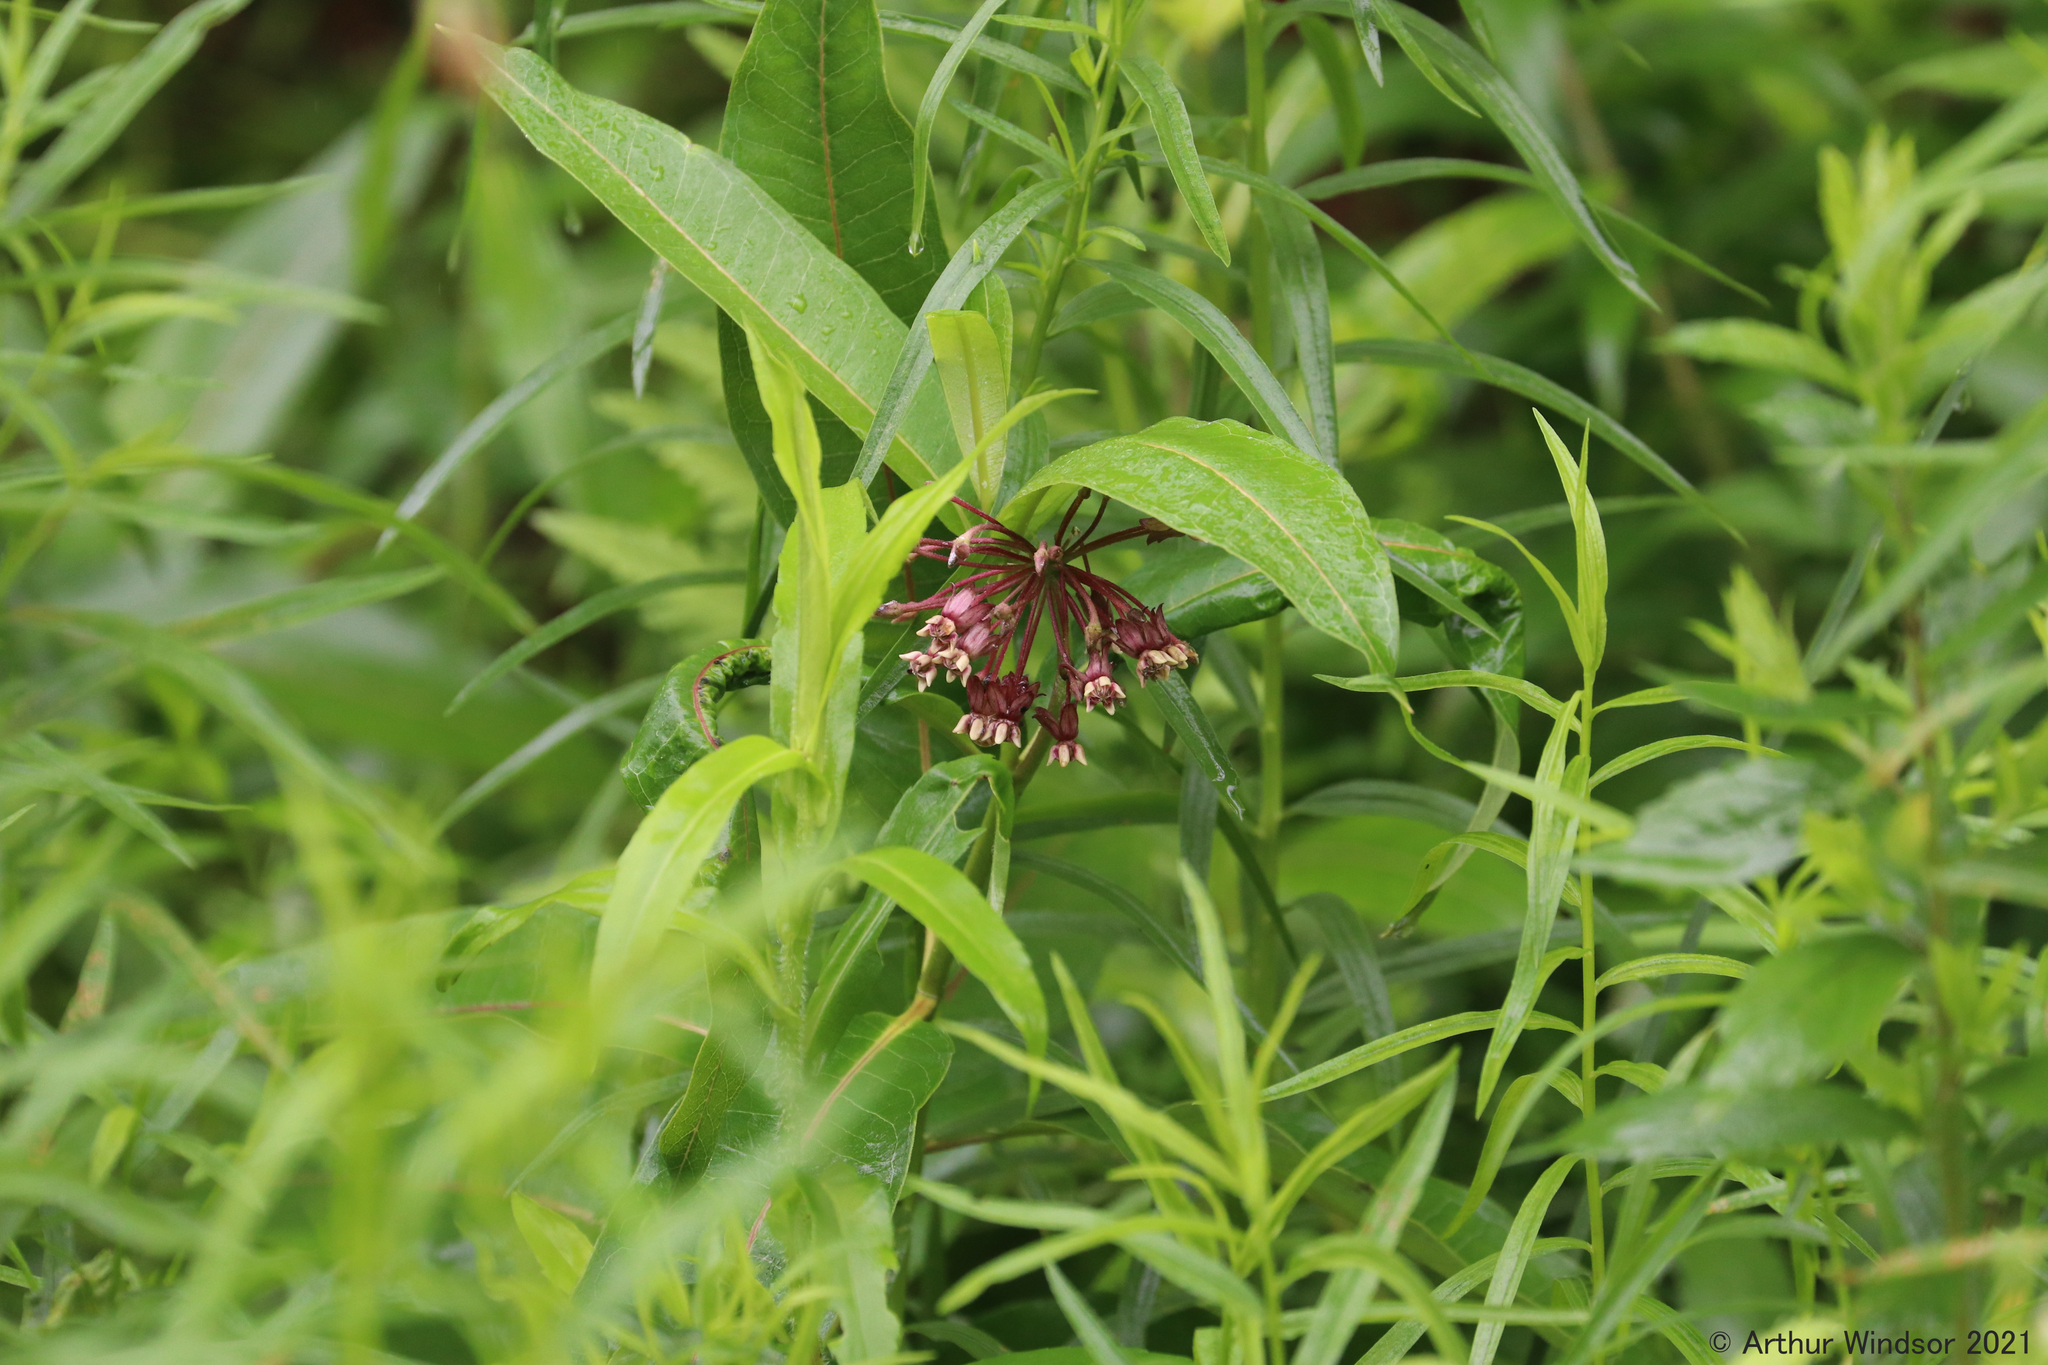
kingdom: Plantae
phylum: Tracheophyta
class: Magnoliopsida
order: Gentianales
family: Apocynaceae
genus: Asclepias
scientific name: Asclepias syriaca
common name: Common milkweed
